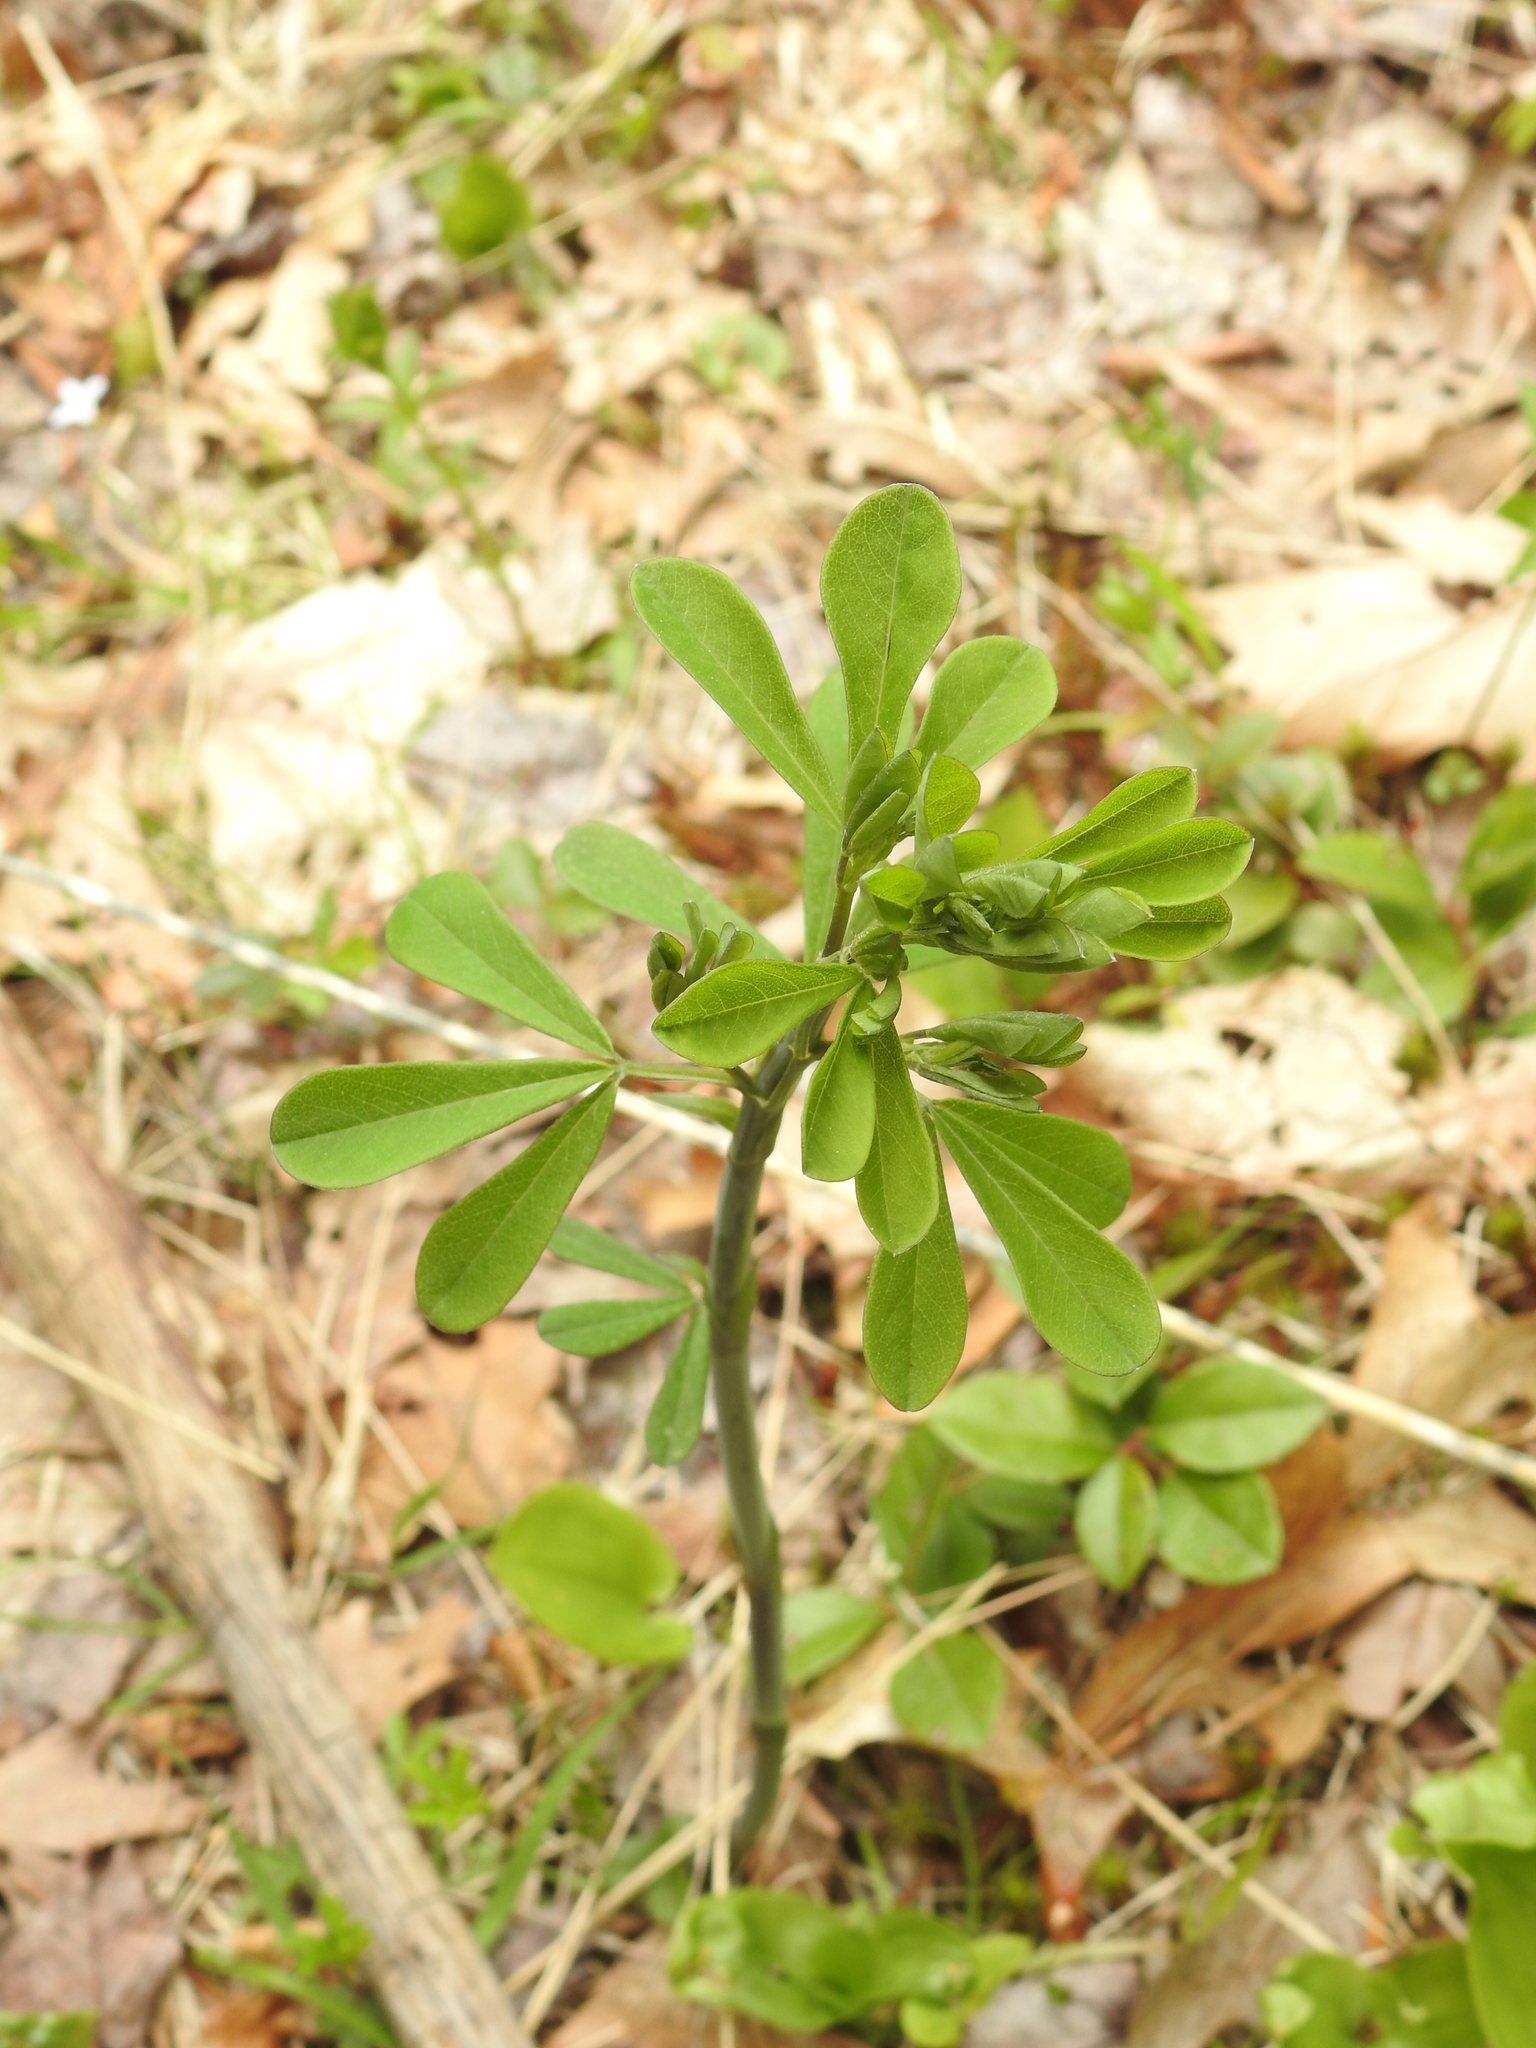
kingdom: Plantae
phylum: Tracheophyta
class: Magnoliopsida
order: Fabales
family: Fabaceae
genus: Baptisia
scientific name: Baptisia tinctoria
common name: Wild indigo
